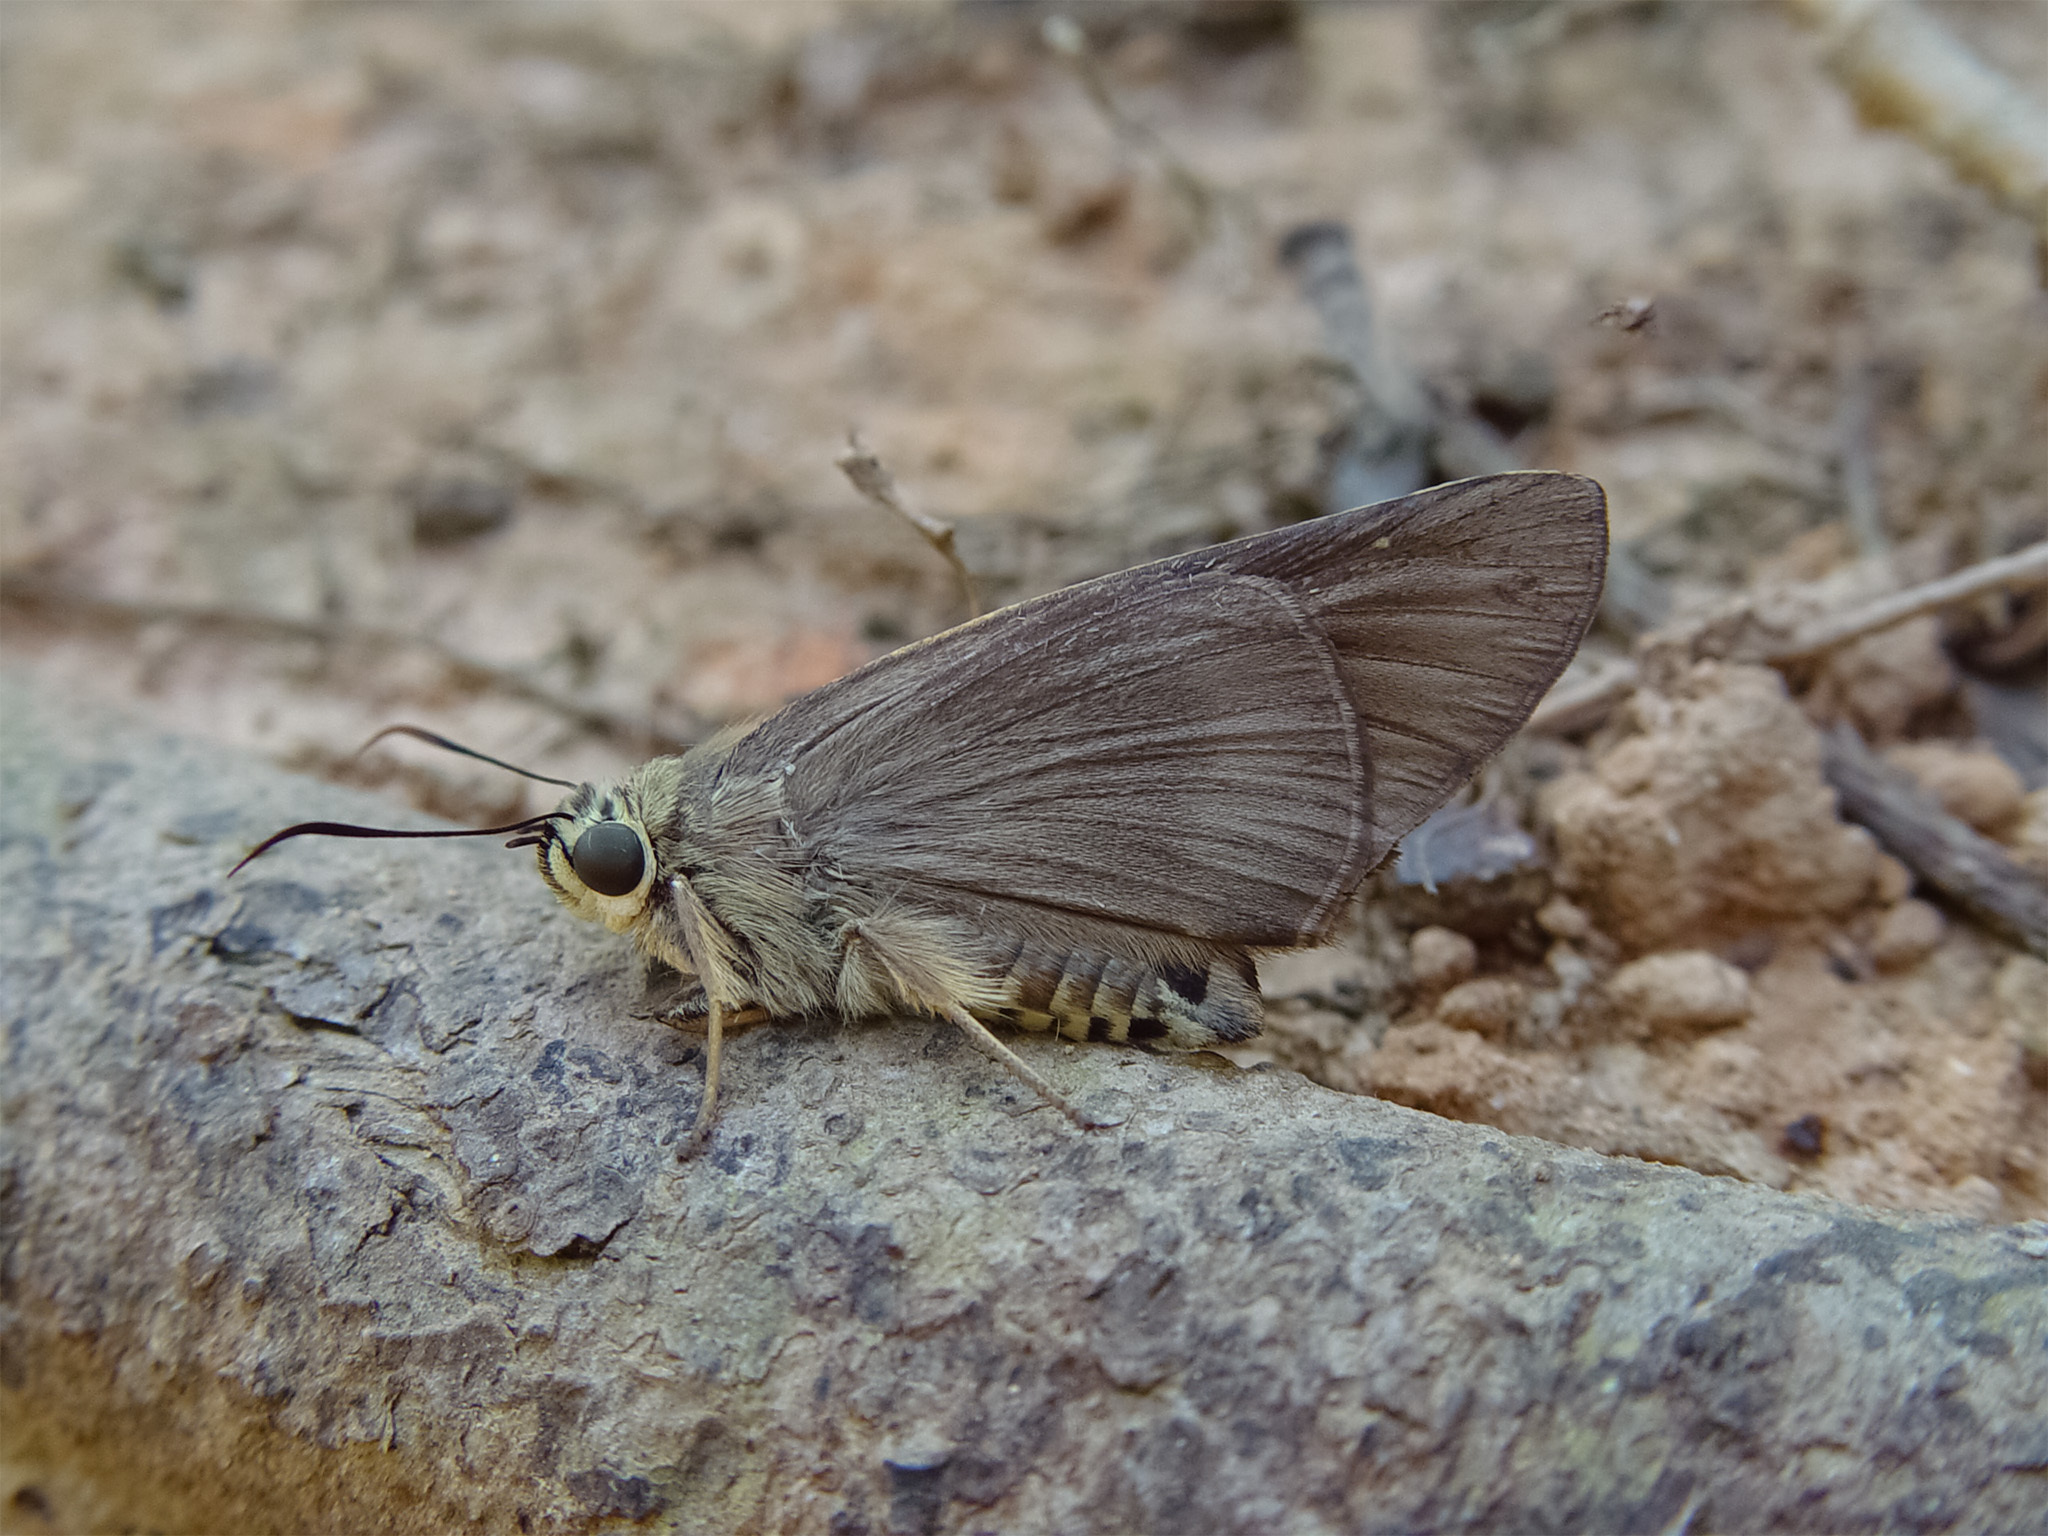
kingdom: Animalia
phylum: Arthropoda
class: Insecta
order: Lepidoptera
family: Hesperiidae
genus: Badamia
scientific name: Badamia exclamationis
